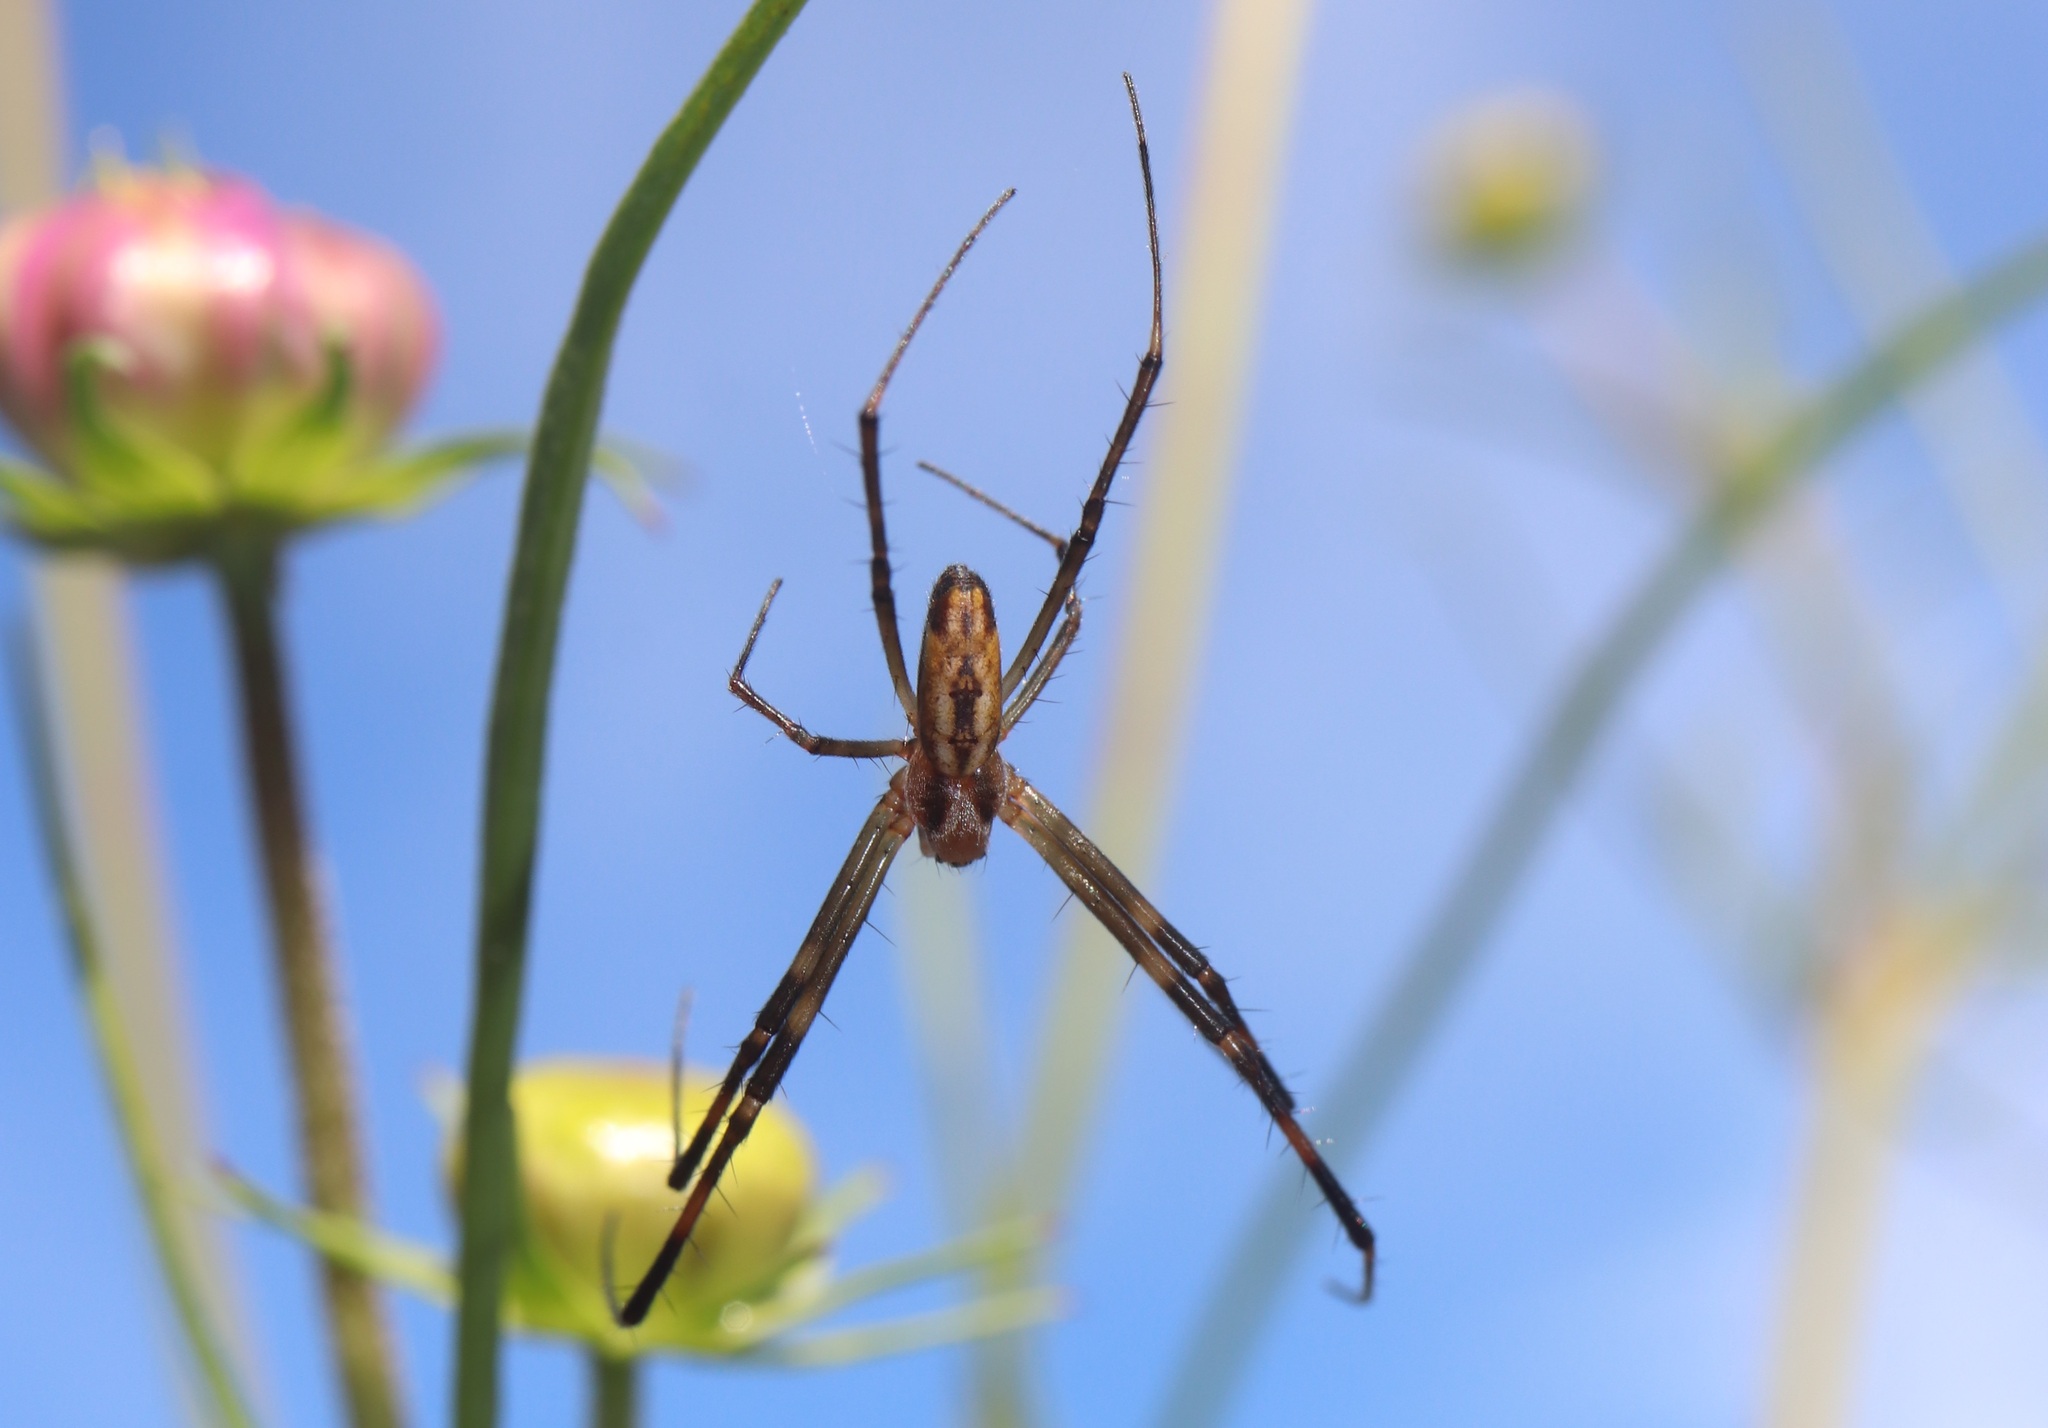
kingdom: Animalia
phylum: Arthropoda
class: Arachnida
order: Araneae
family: Araneidae
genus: Trichonephila
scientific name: Trichonephila clavata
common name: Jorō spider
